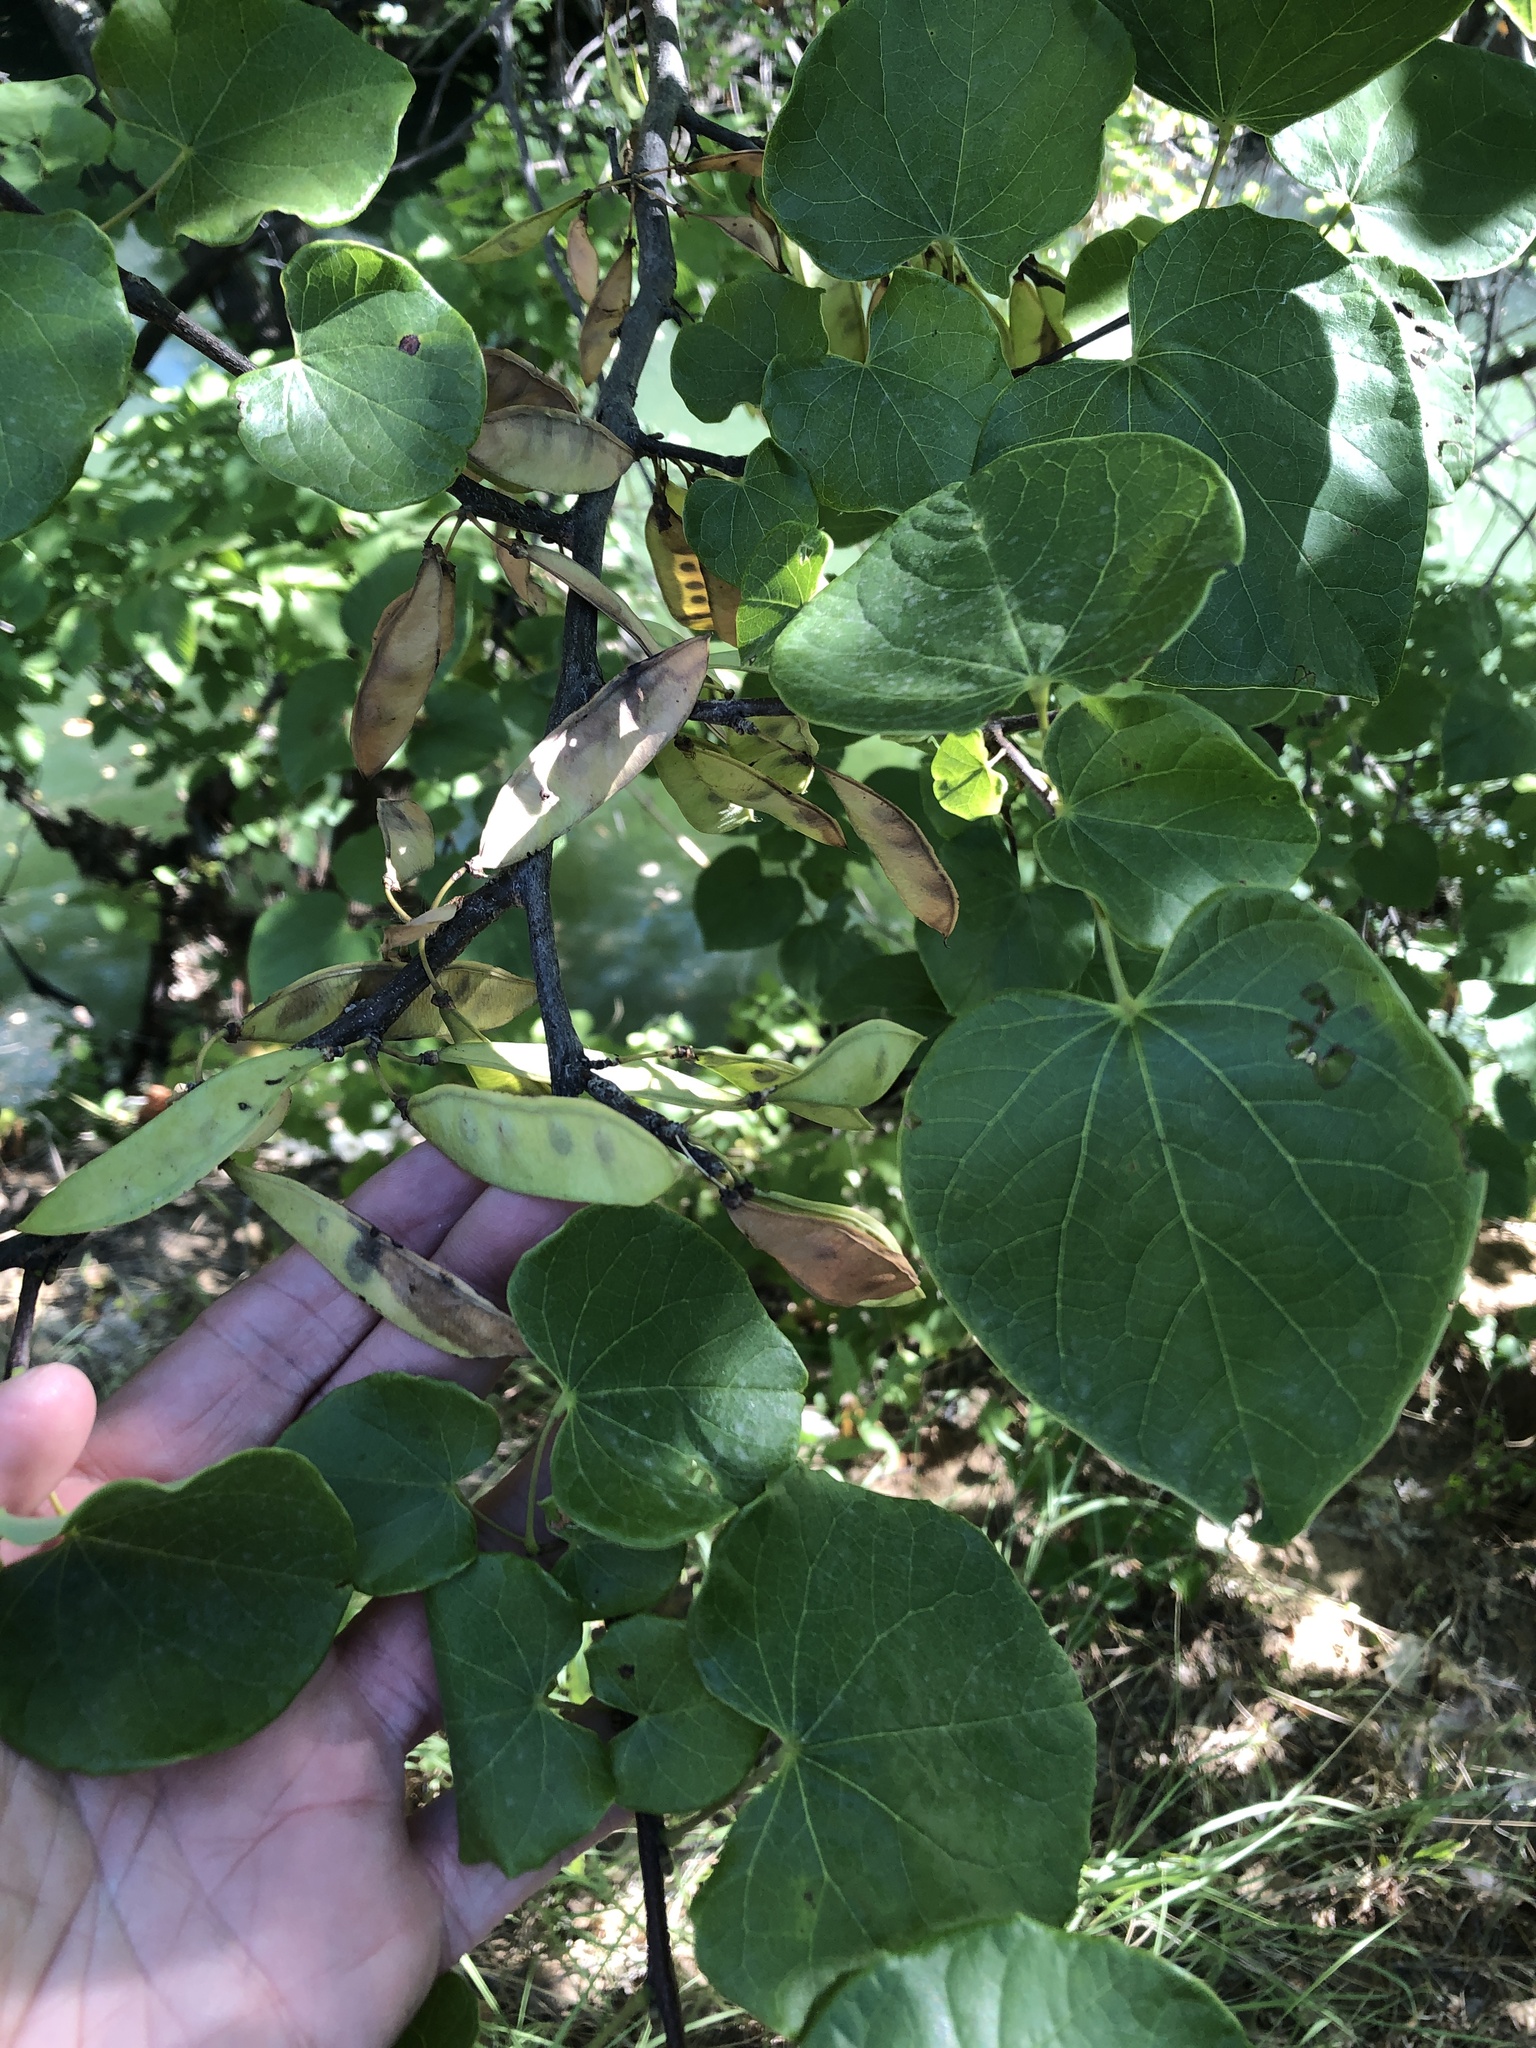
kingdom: Plantae
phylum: Tracheophyta
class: Magnoliopsida
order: Fabales
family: Fabaceae
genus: Cercis
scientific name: Cercis canadensis
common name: Eastern redbud
